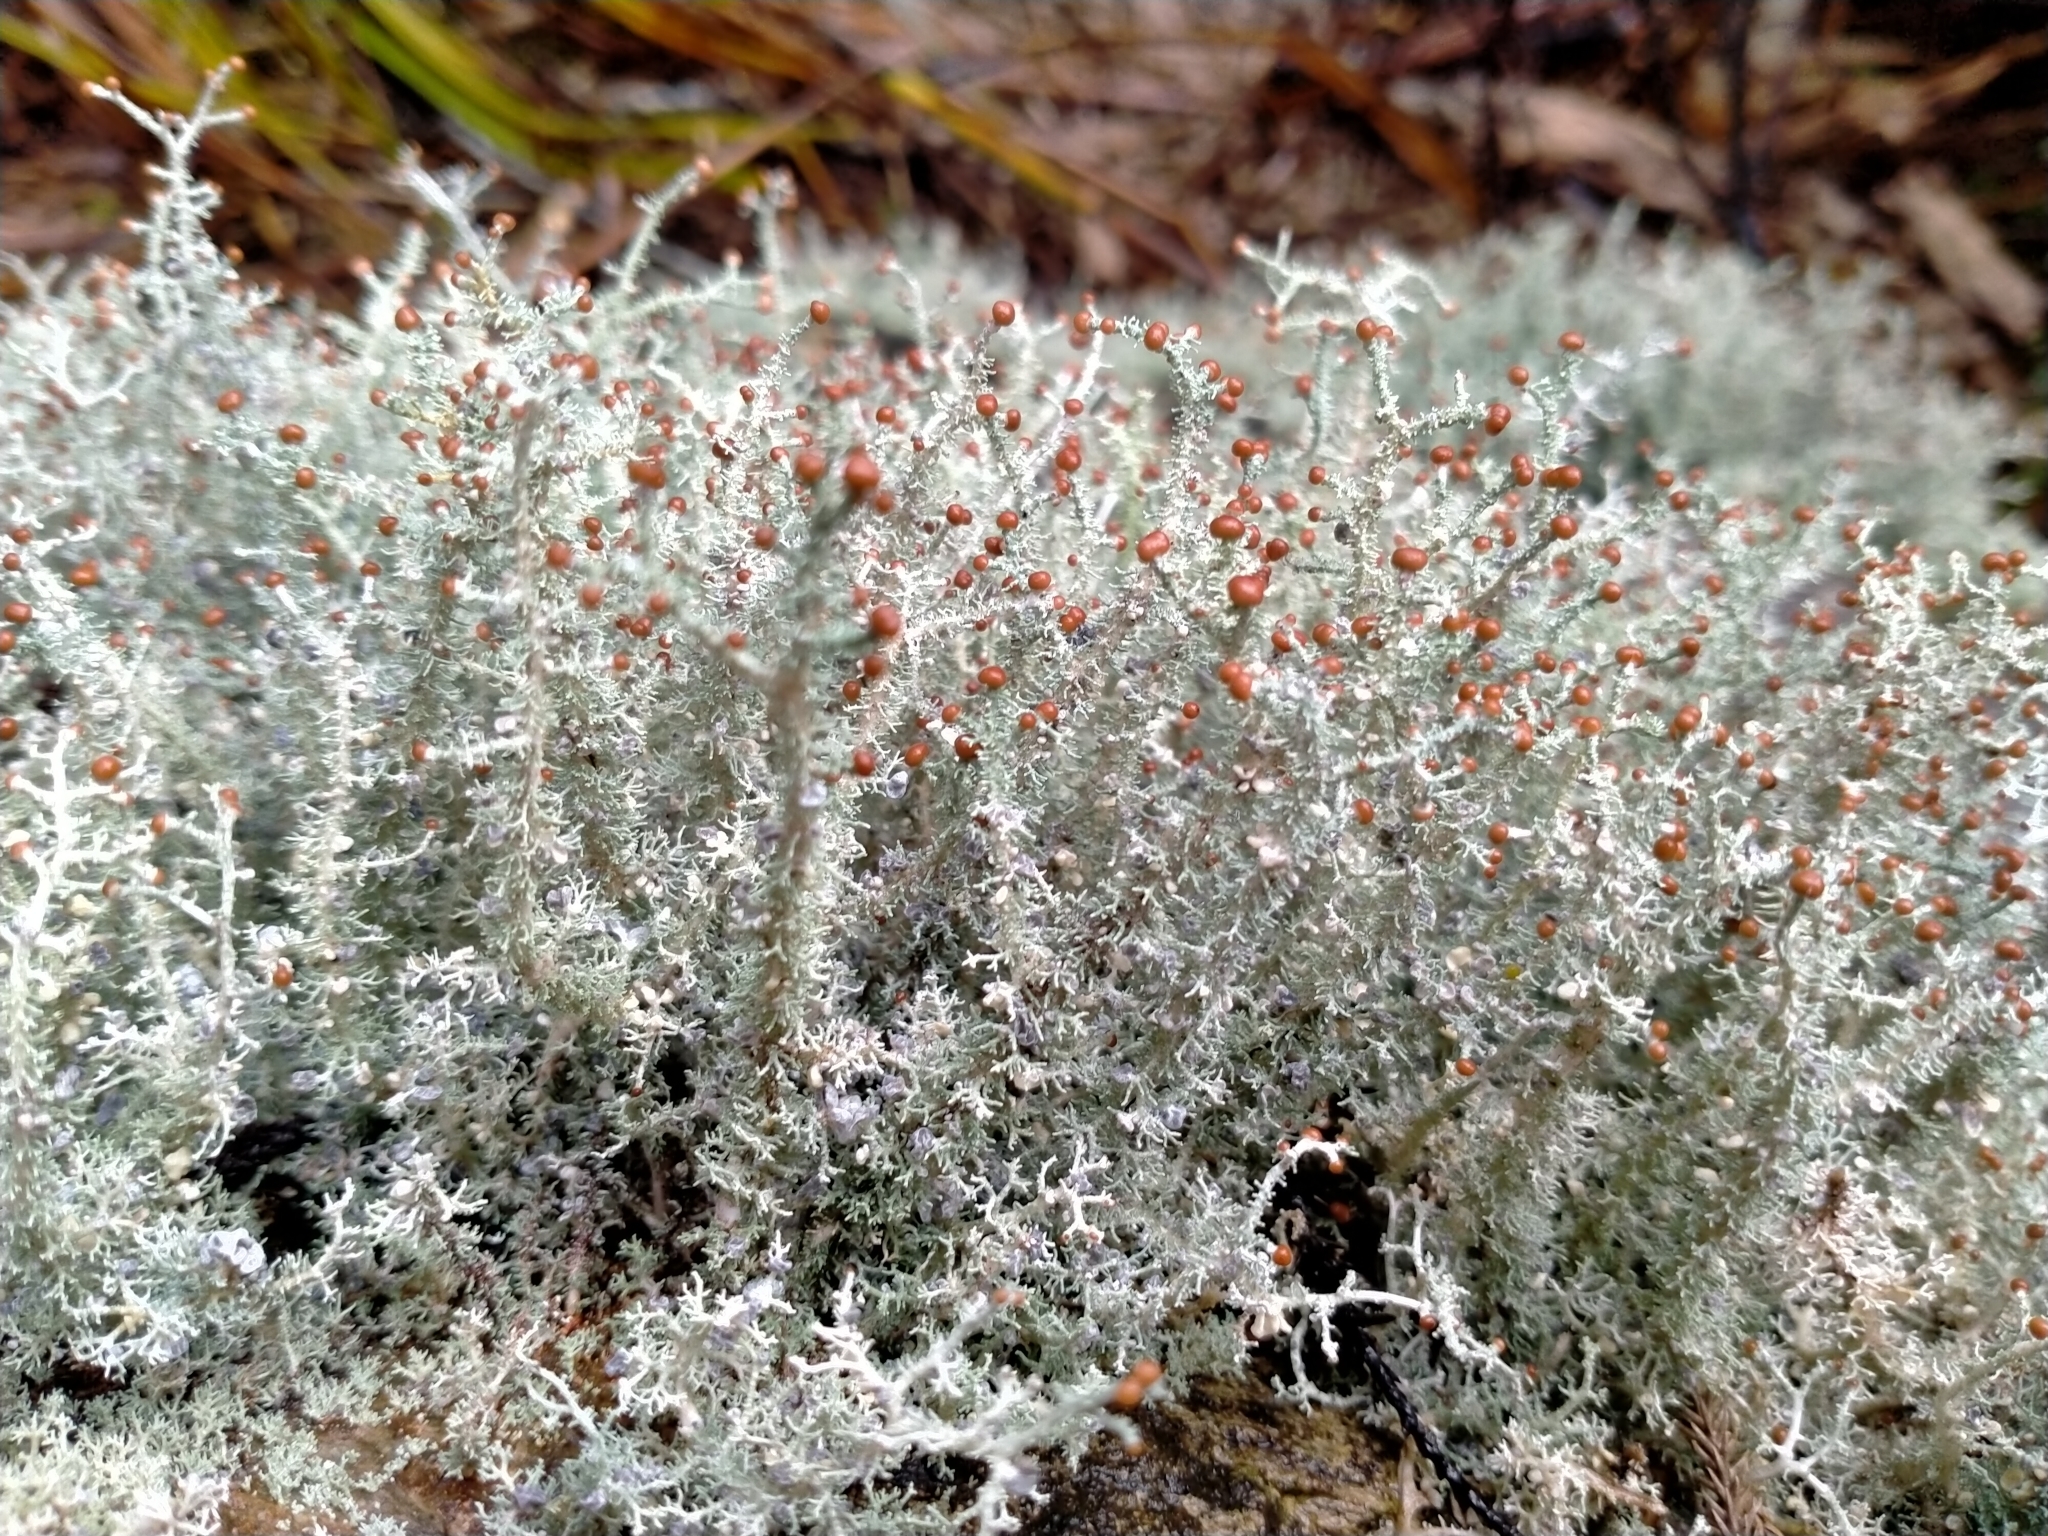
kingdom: Fungi
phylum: Ascomycota
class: Lecanoromycetes
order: Lecanorales
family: Stereocaulaceae
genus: Stereocaulon
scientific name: Stereocaulon ramulosum
